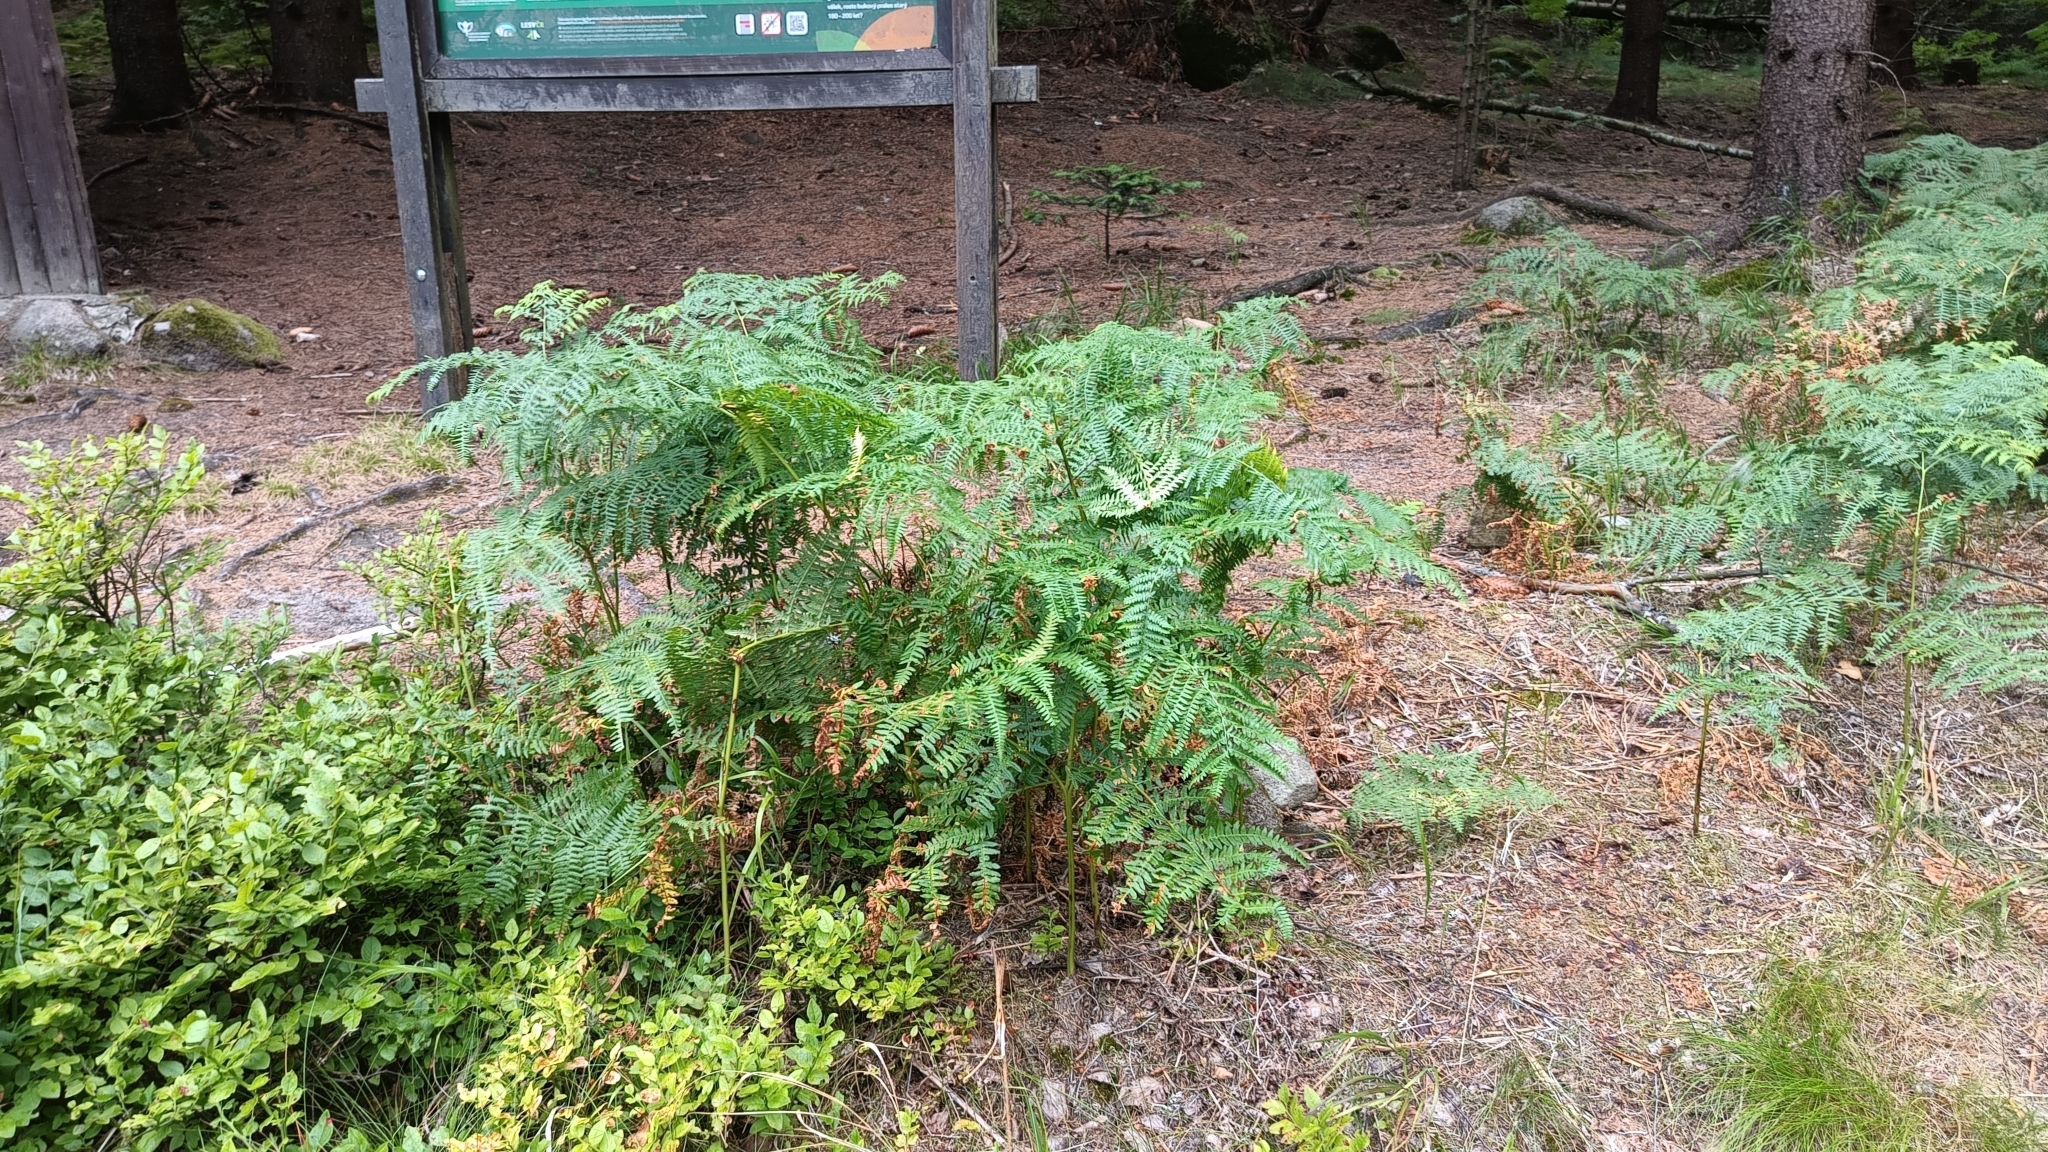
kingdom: Plantae
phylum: Tracheophyta
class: Polypodiopsida
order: Polypodiales
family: Dennstaedtiaceae
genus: Pteridium
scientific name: Pteridium aquilinum
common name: Bracken
